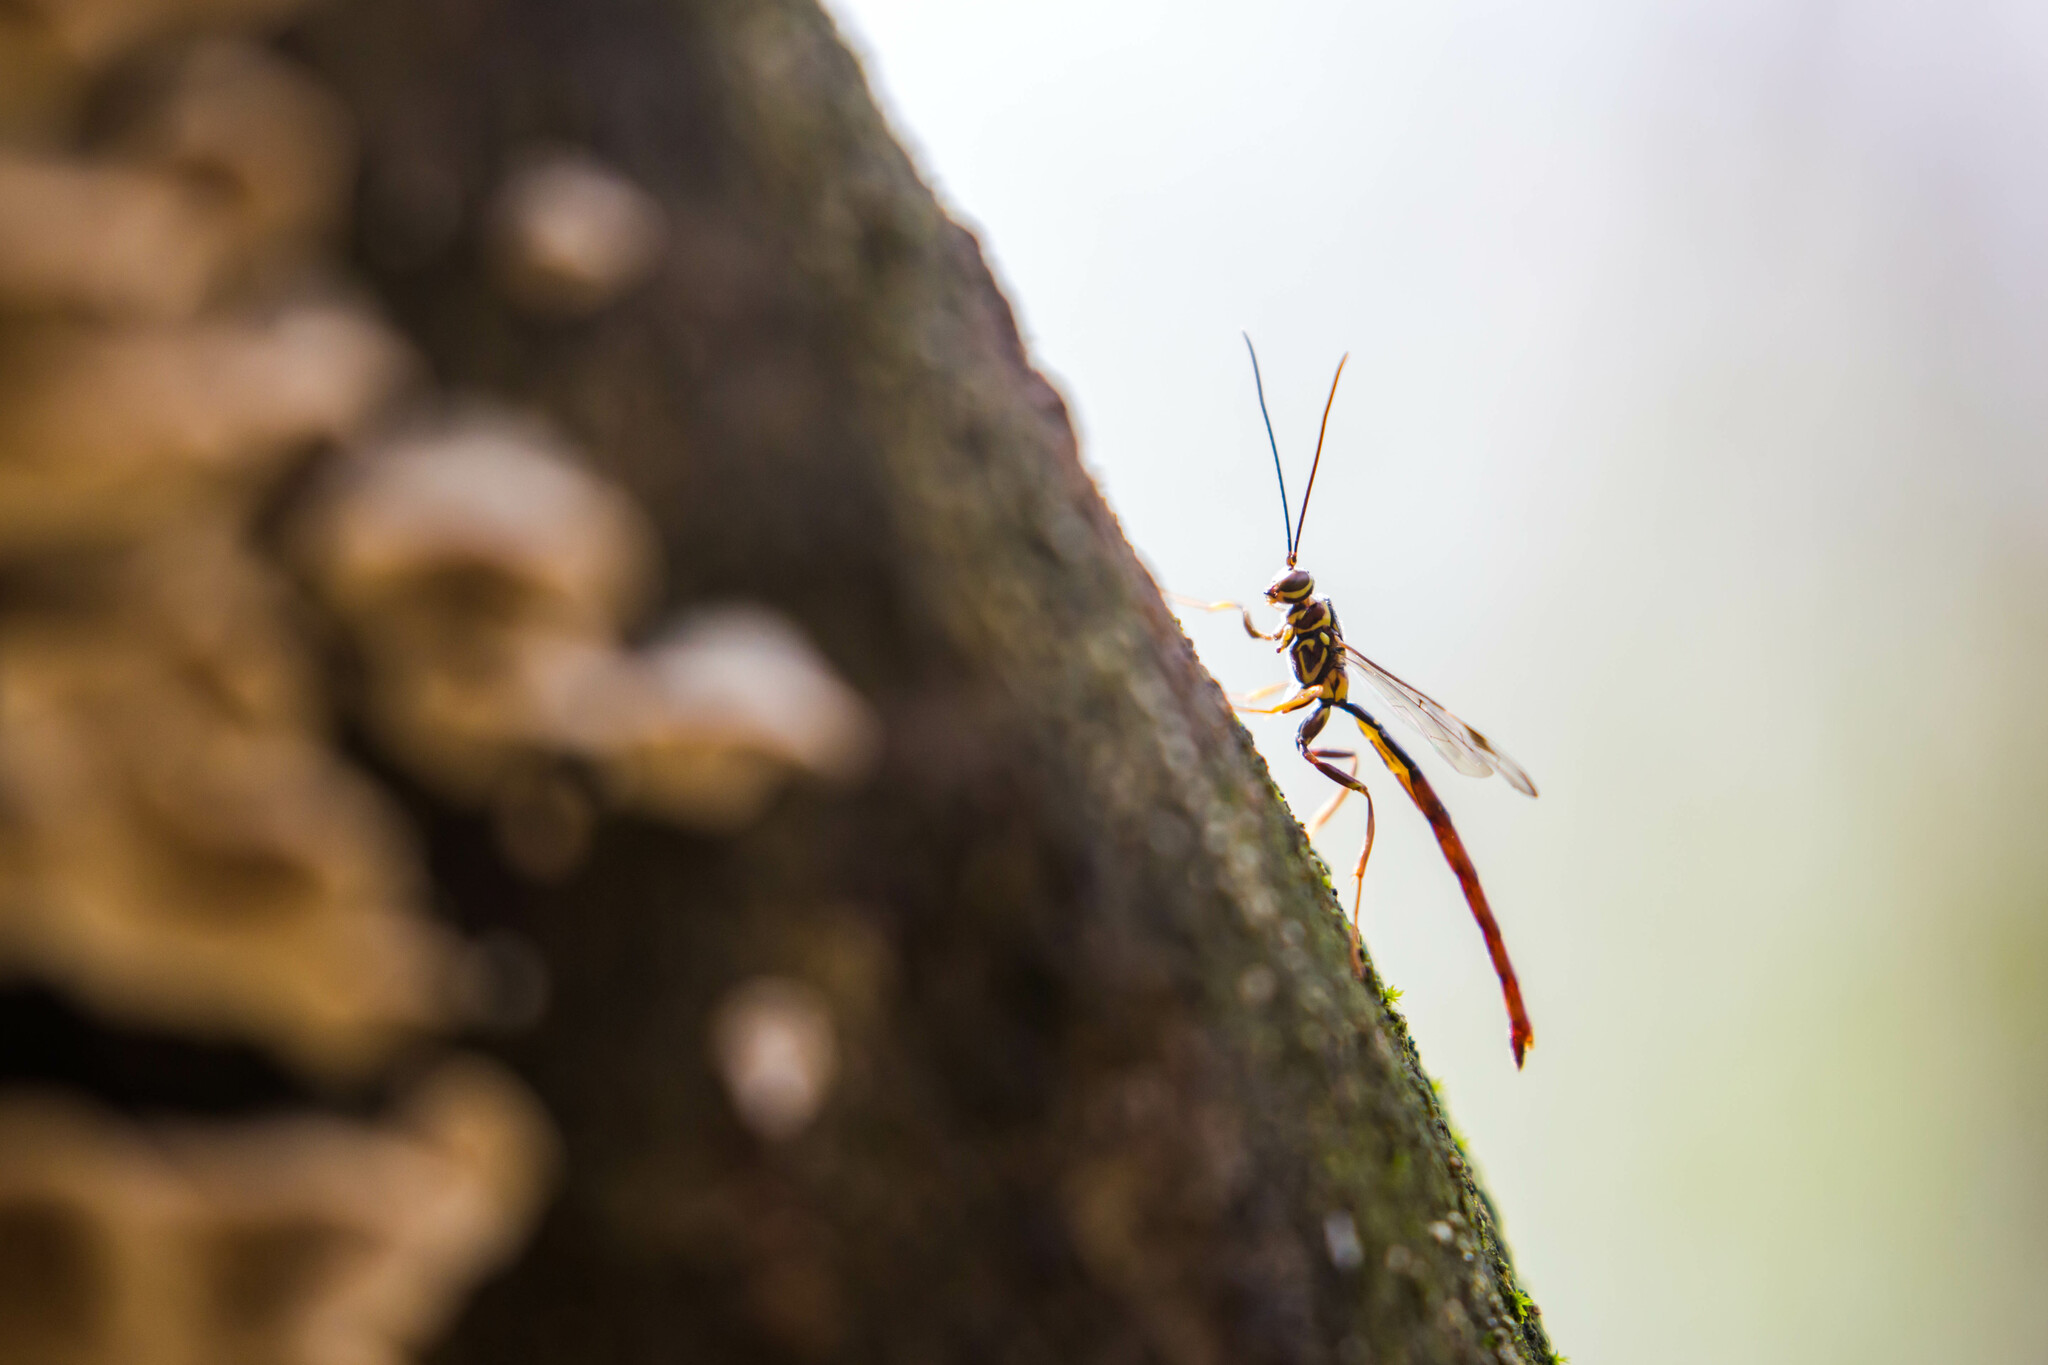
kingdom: Animalia
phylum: Arthropoda
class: Insecta
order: Hymenoptera
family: Ichneumonidae
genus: Megarhyssa
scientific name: Megarhyssa macrura
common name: Long-tailed giant ichneumonid wasp
